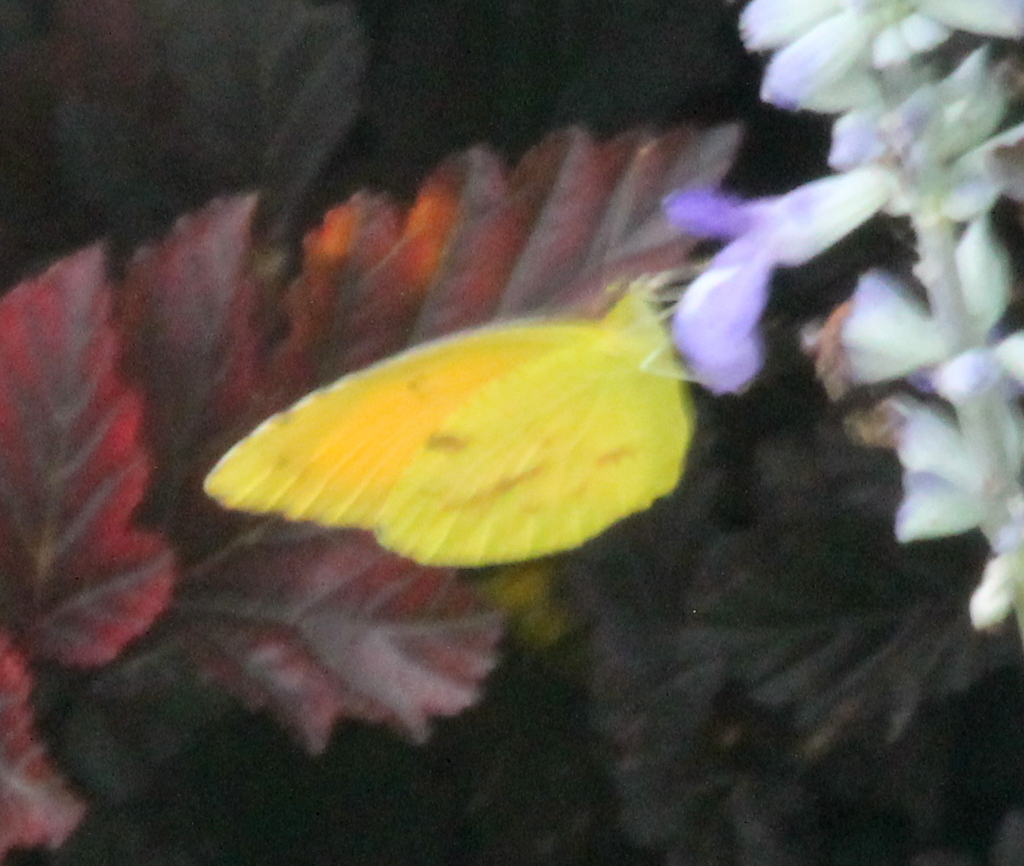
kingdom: Animalia
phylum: Arthropoda
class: Insecta
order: Lepidoptera
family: Pieridae
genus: Abaeis
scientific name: Abaeis nicippe
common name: Sleepy orange
